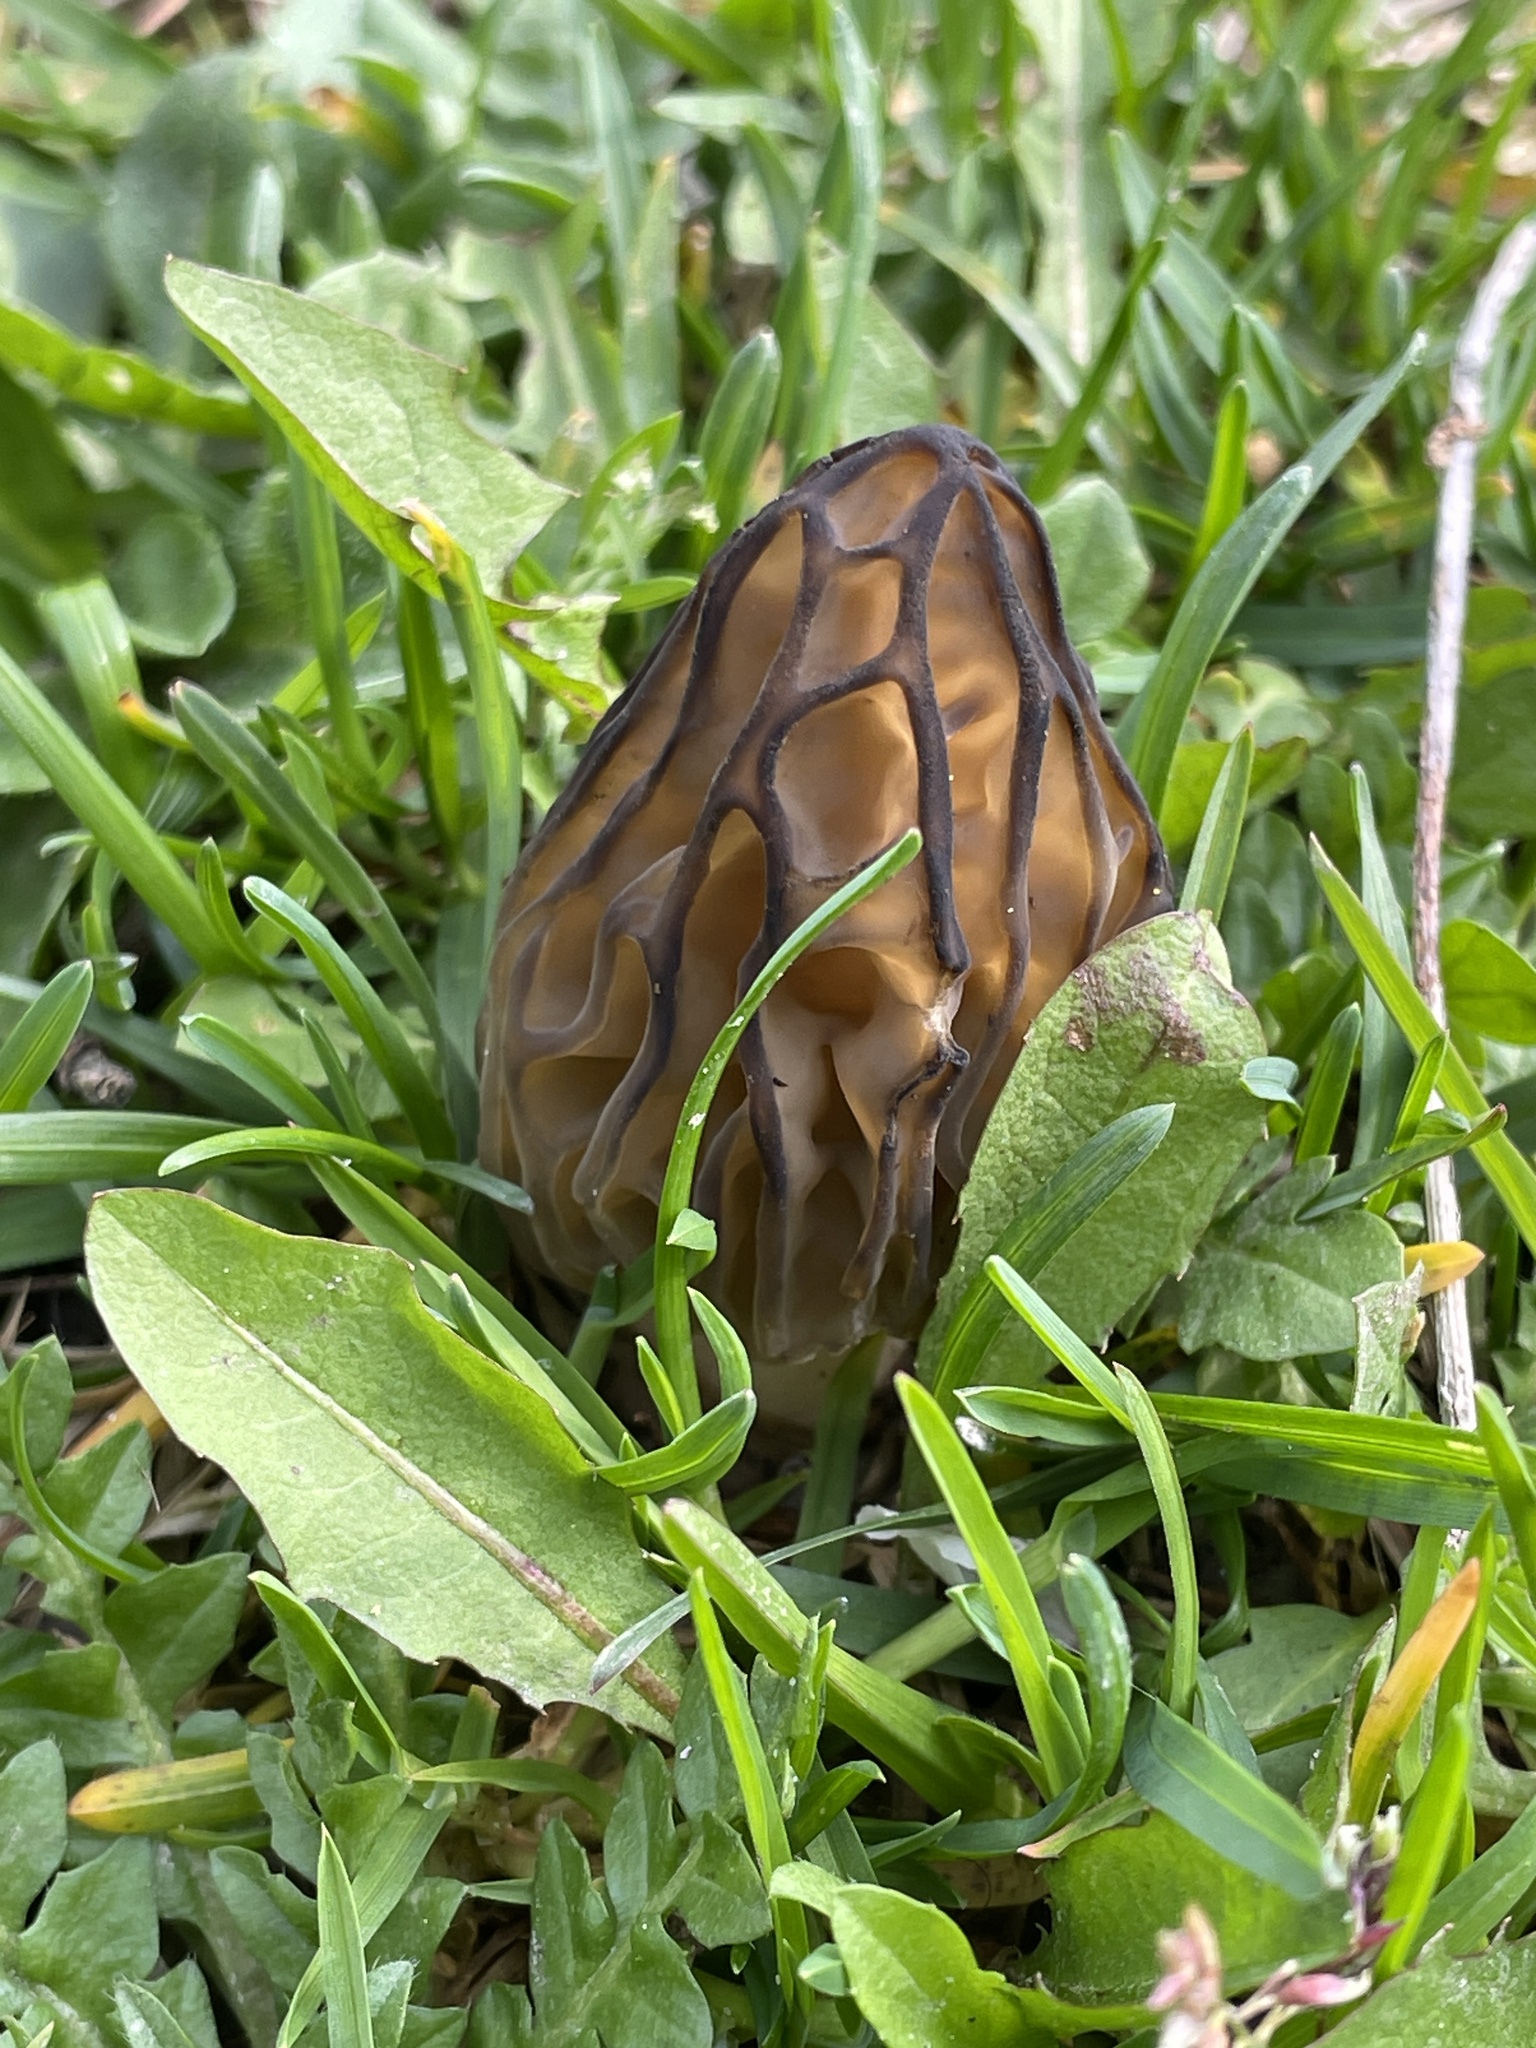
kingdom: Fungi
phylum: Ascomycota
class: Pezizomycetes
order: Pezizales
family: Morchellaceae
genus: Morchella
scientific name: Morchella
